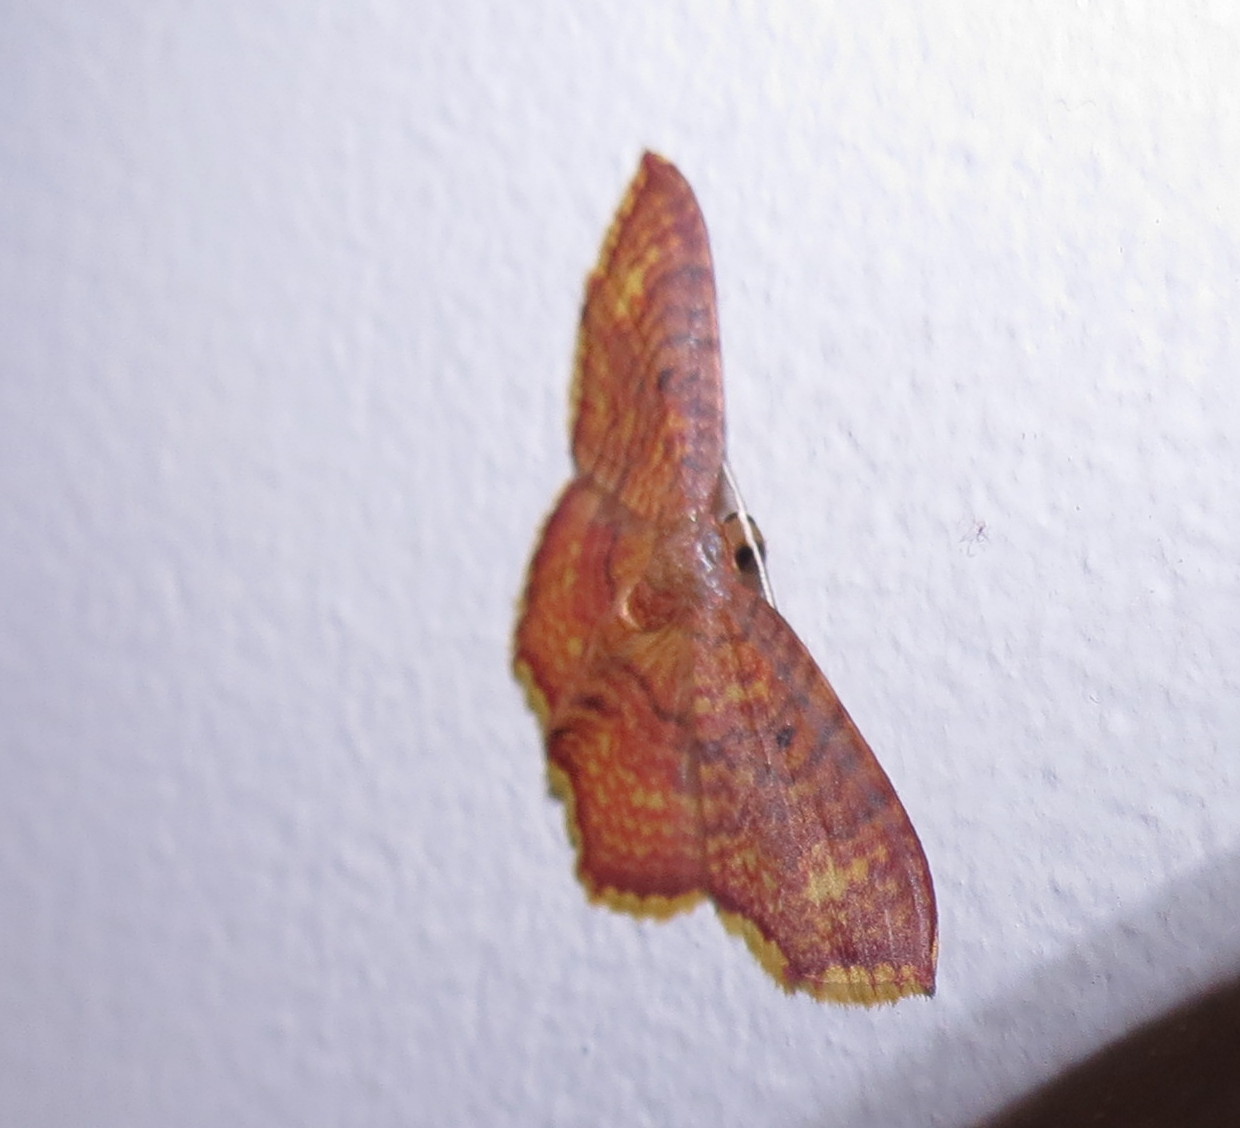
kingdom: Animalia
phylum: Arthropoda
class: Insecta
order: Lepidoptera
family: Geometridae
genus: Eois
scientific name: Eois grataria
